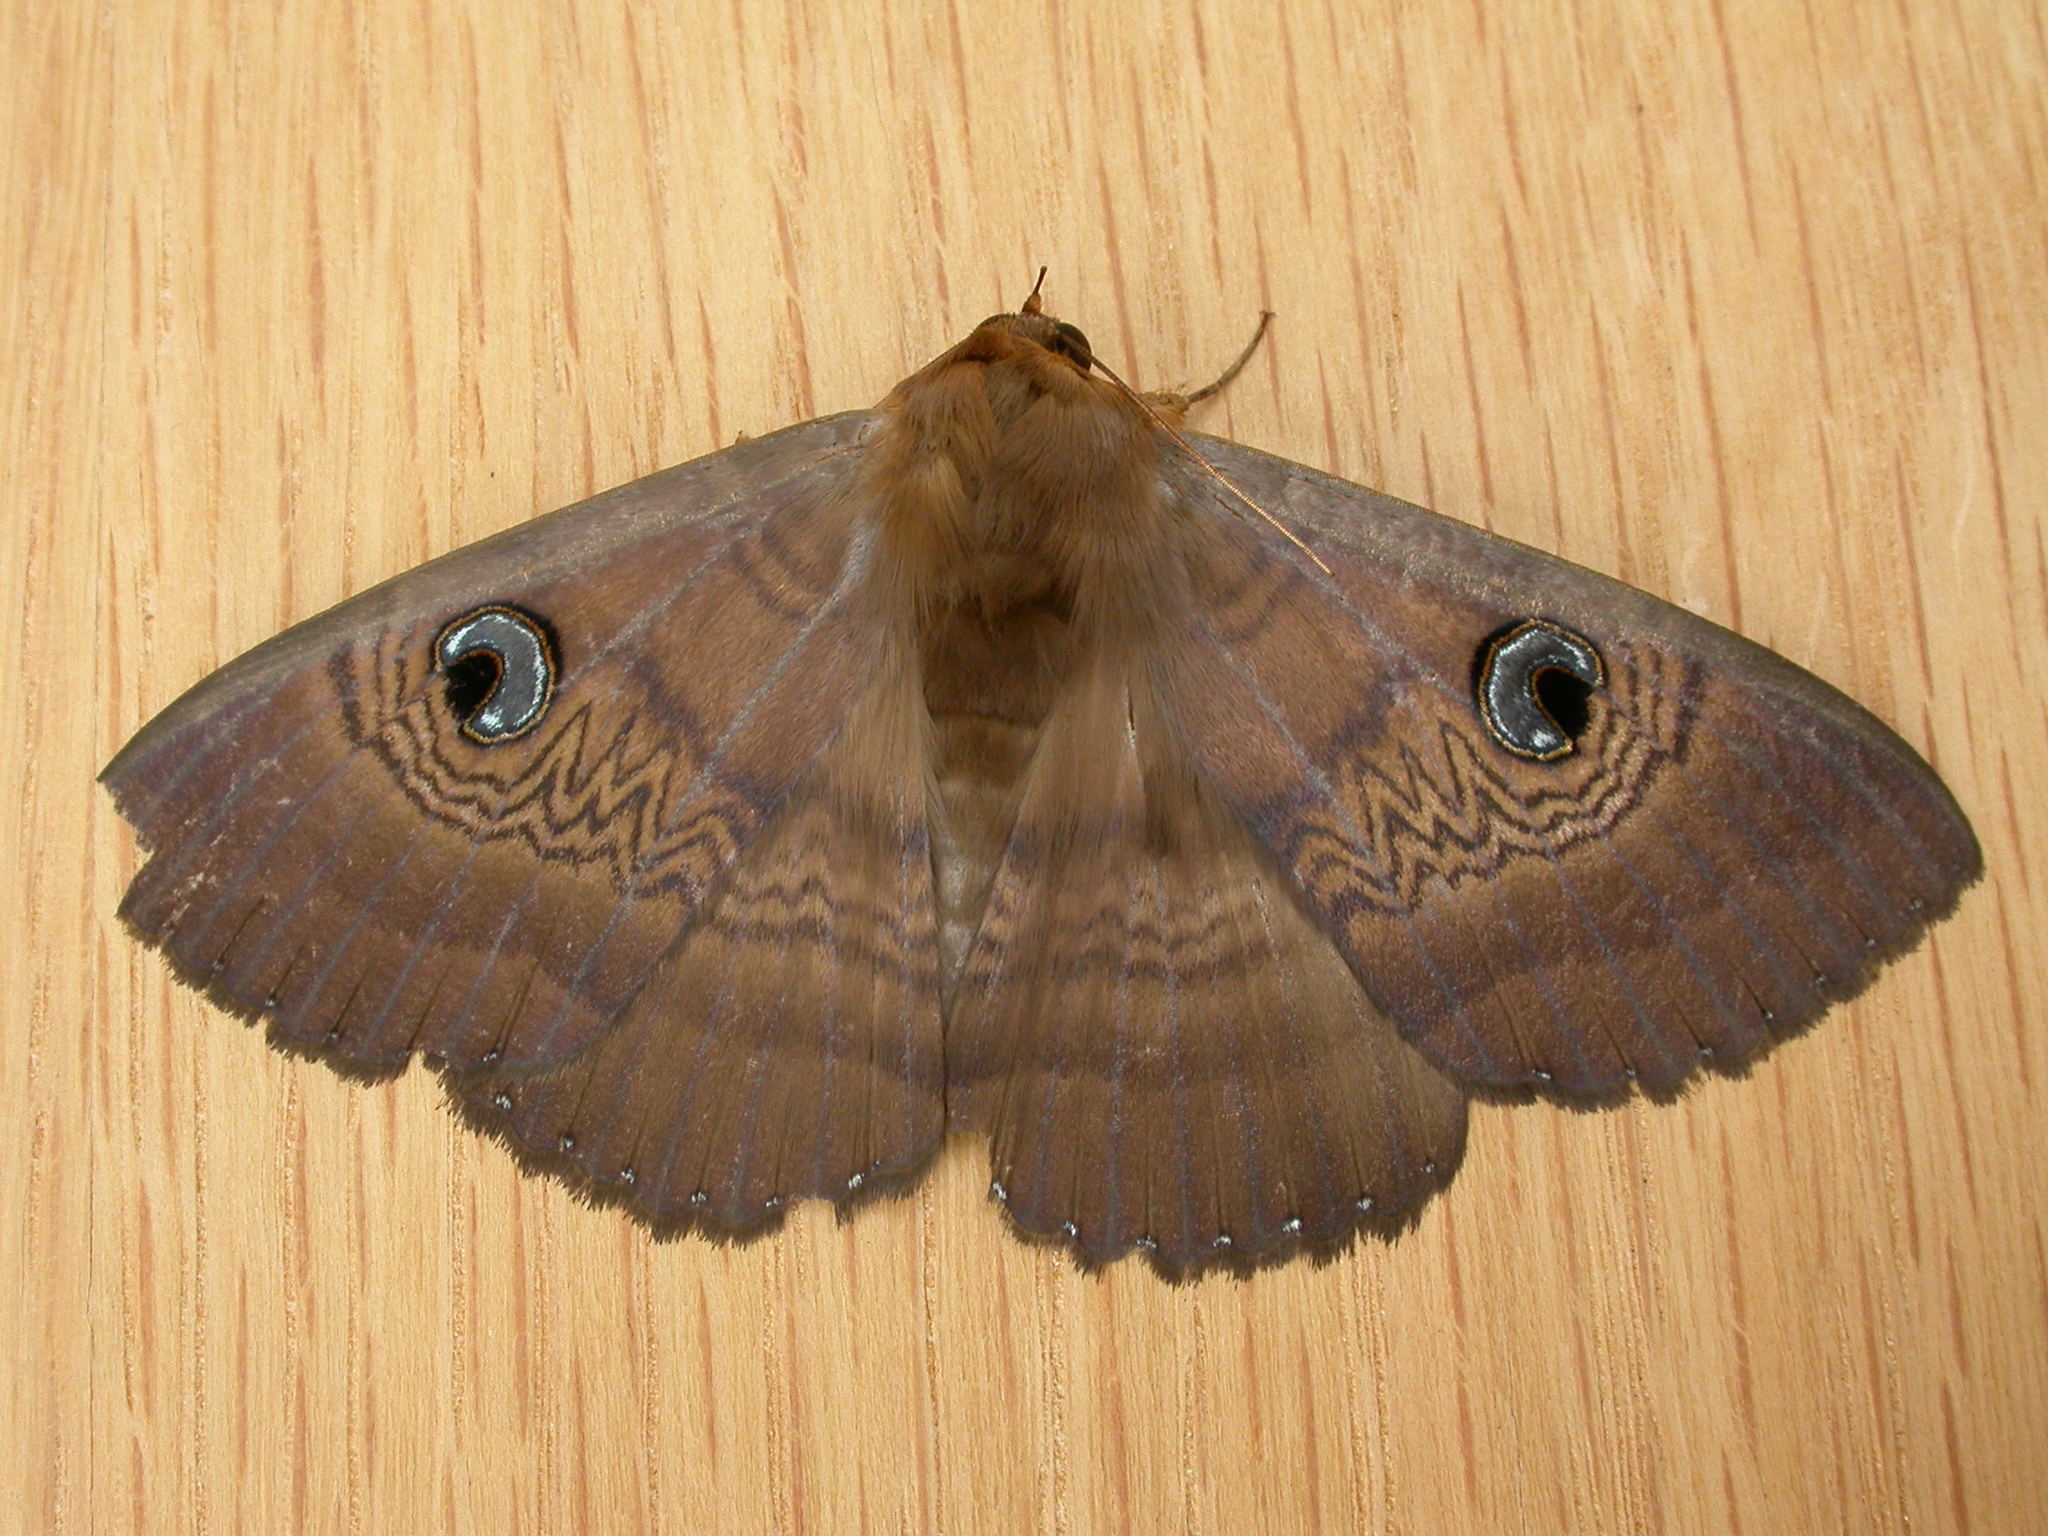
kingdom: Animalia
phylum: Arthropoda
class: Insecta
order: Lepidoptera
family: Erebidae
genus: Dasypodia
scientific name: Dasypodia selenophora
